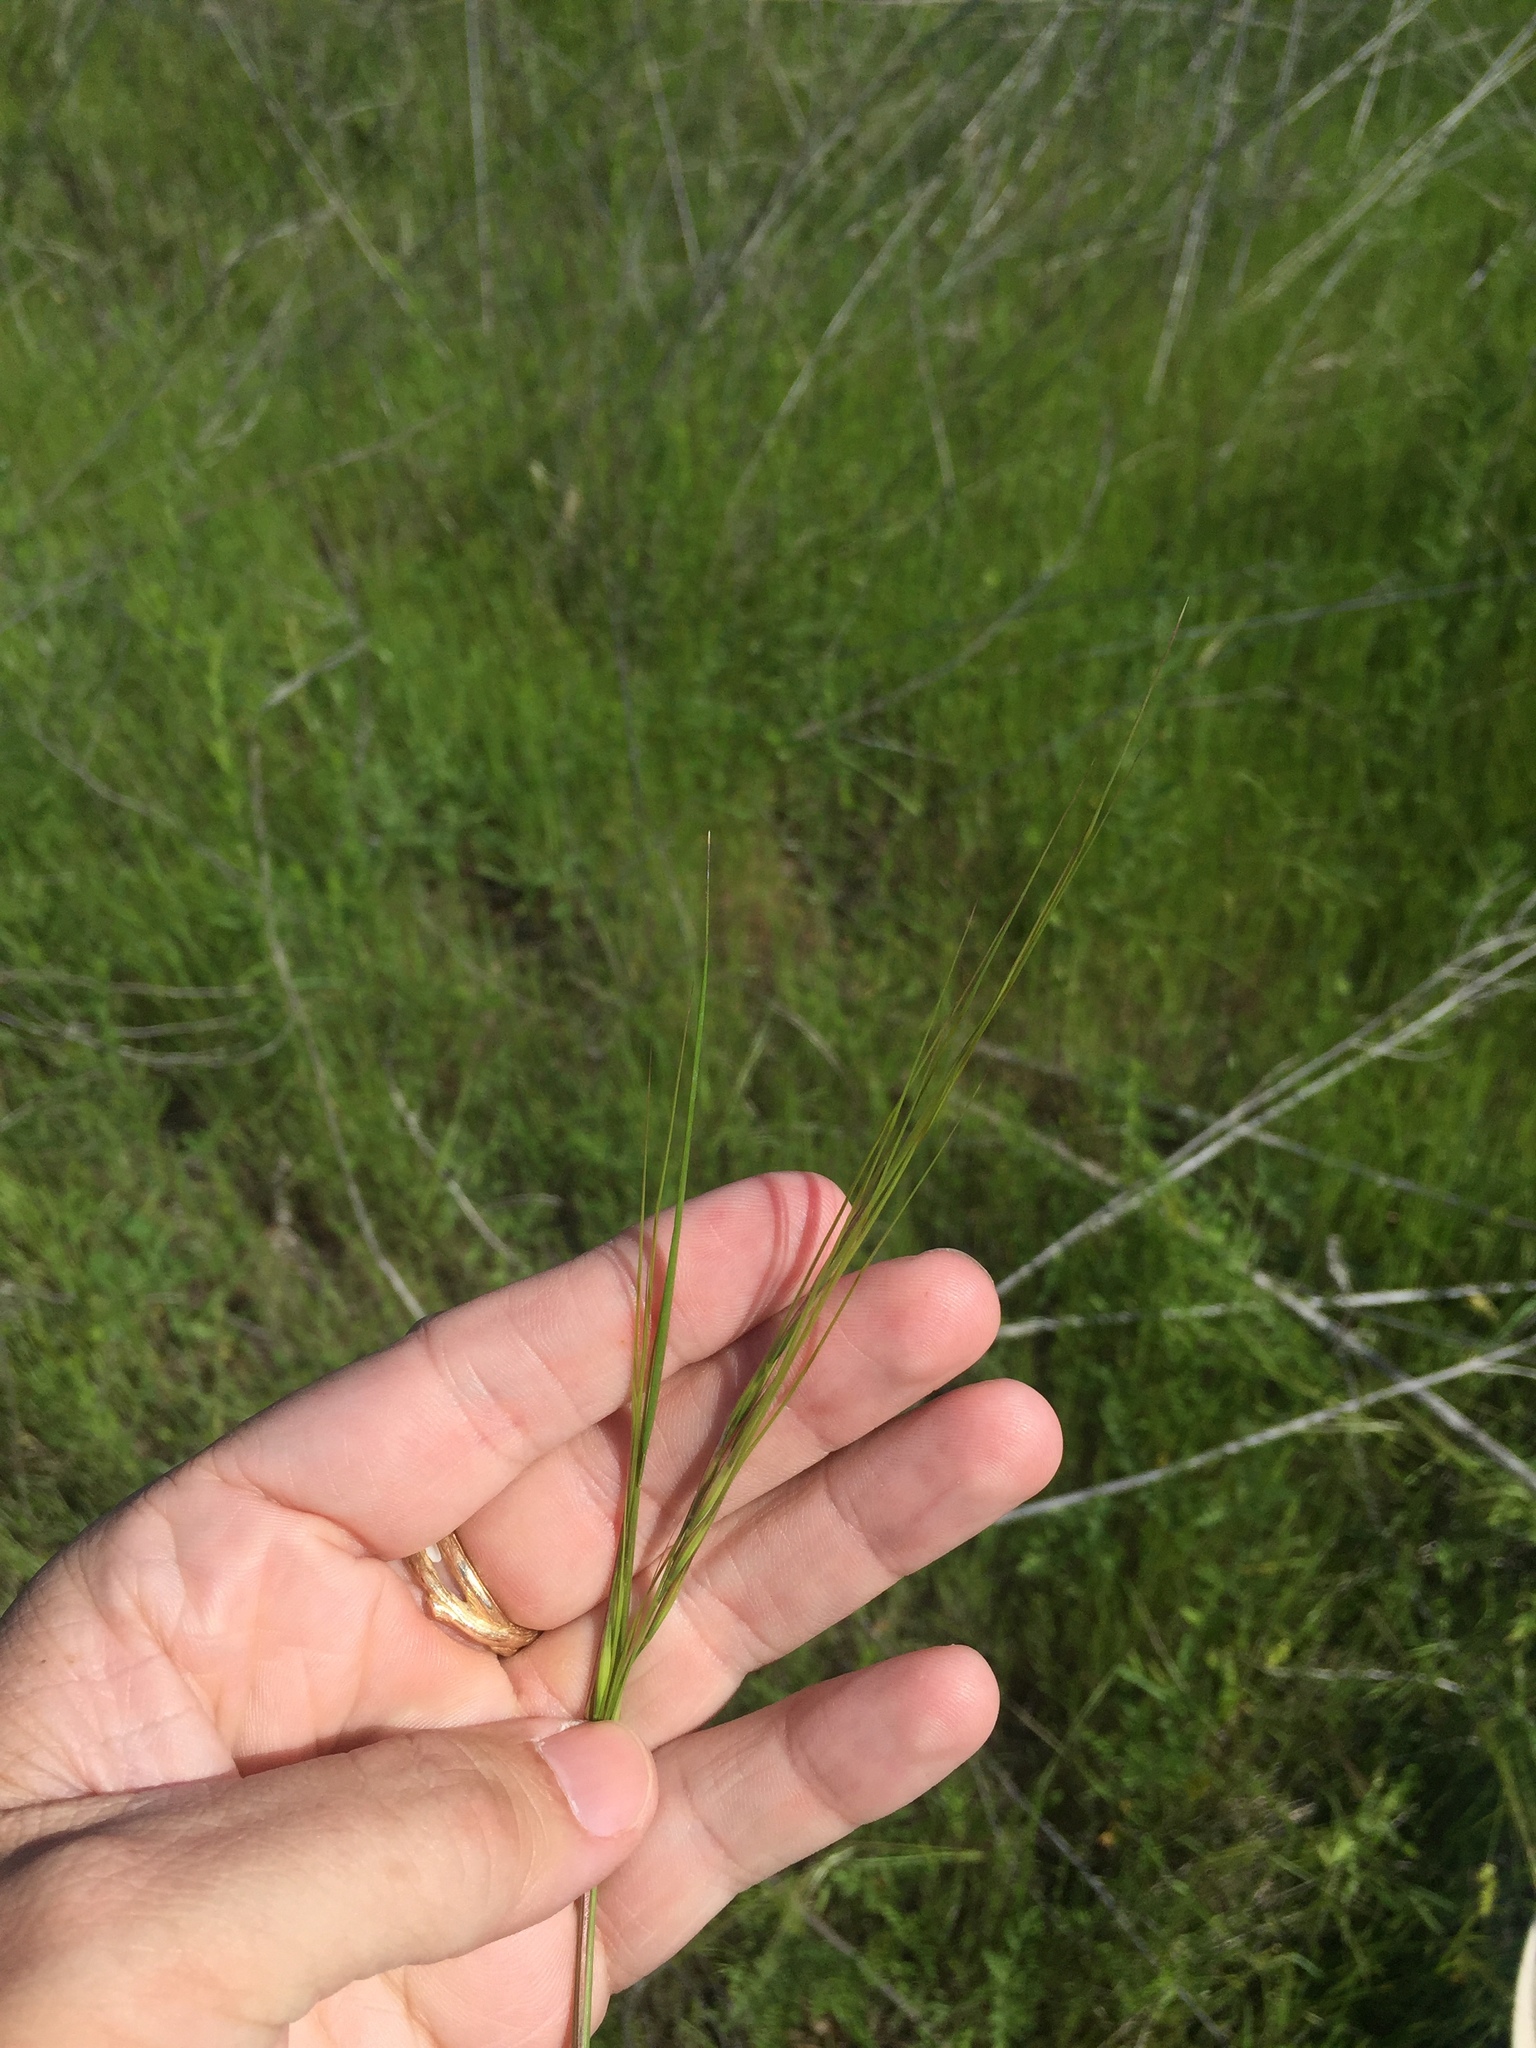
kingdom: Plantae
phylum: Tracheophyta
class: Liliopsida
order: Poales
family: Poaceae
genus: Nassella
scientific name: Nassella leucotricha
